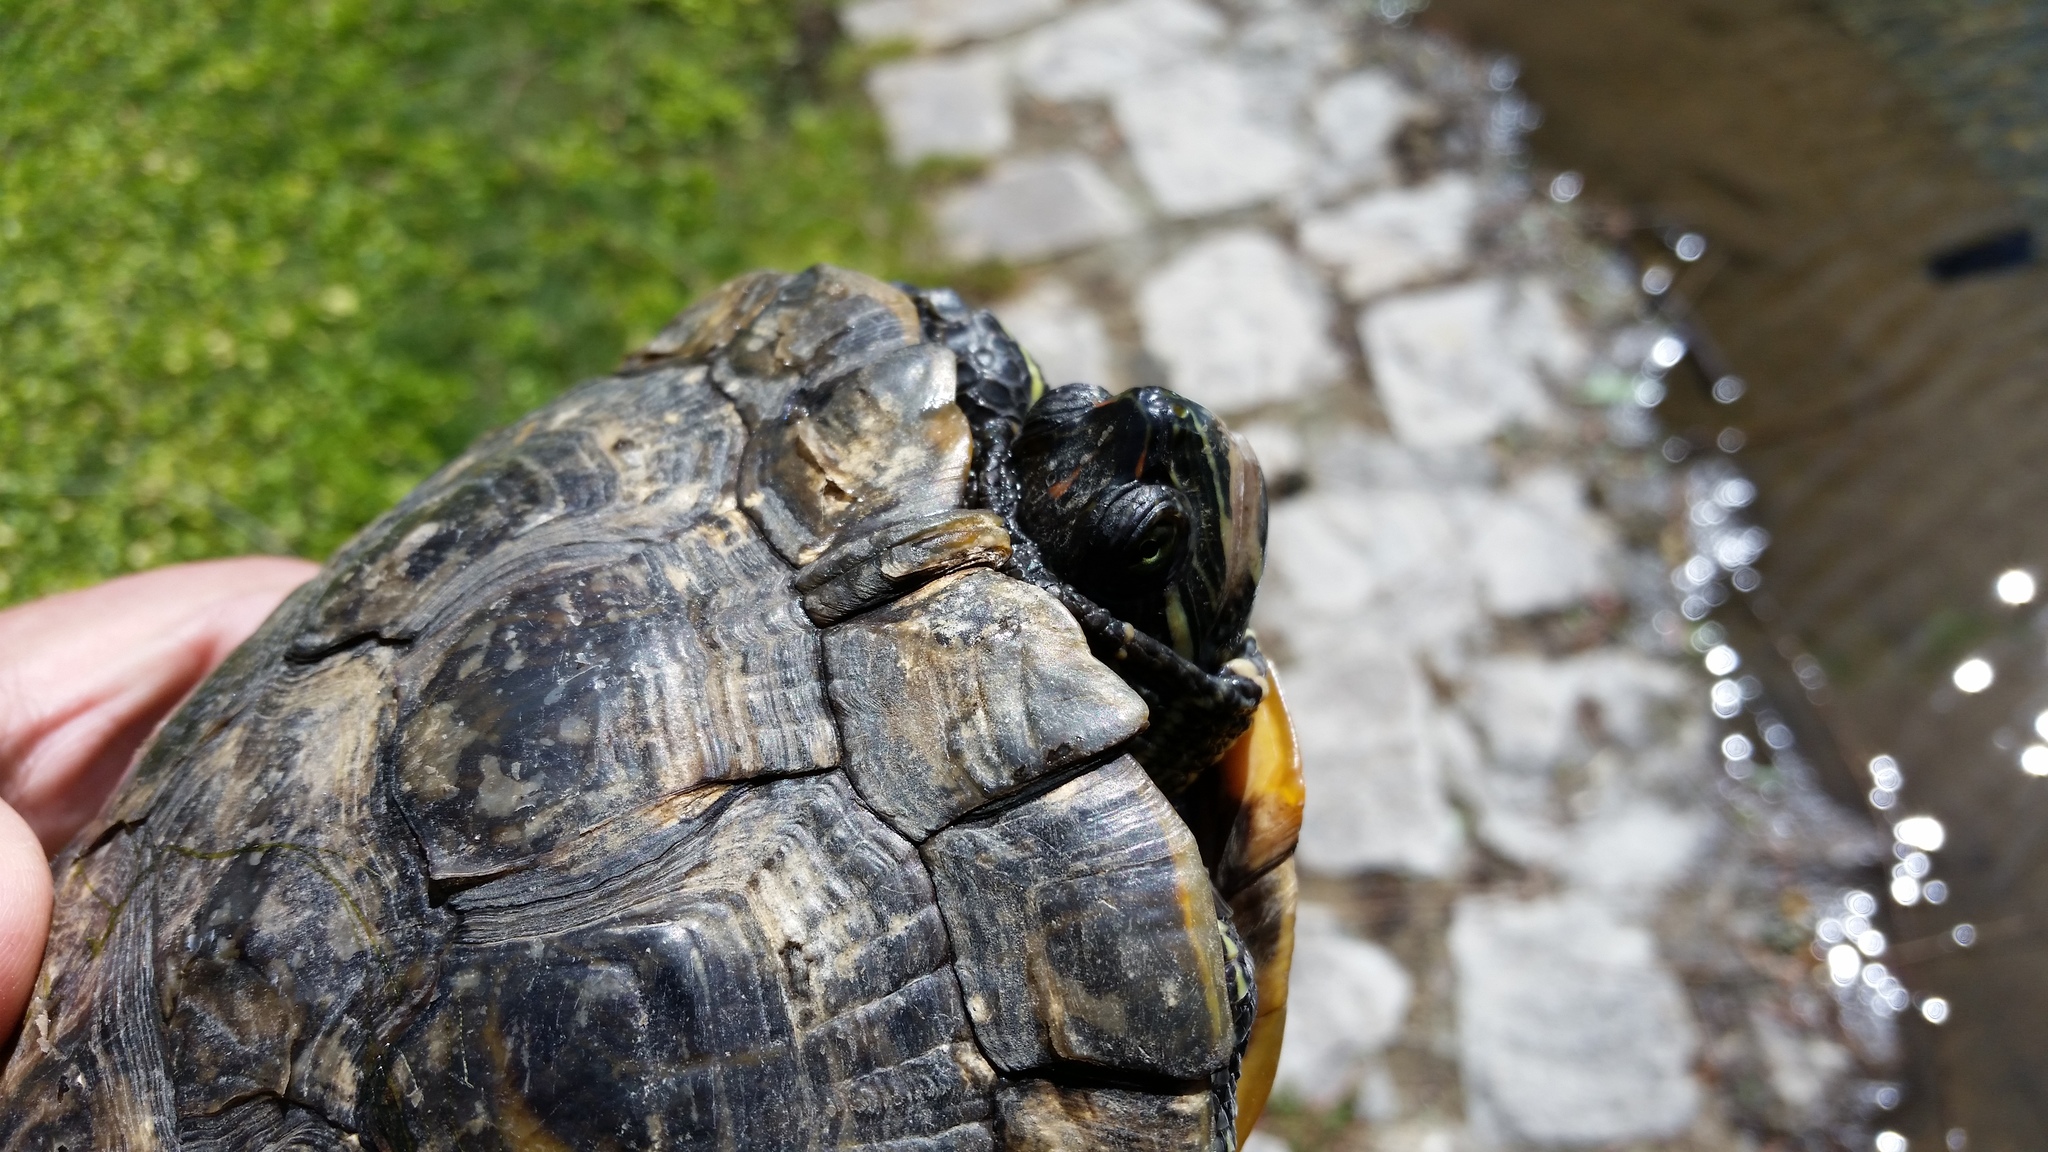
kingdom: Animalia
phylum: Chordata
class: Testudines
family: Emydidae
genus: Trachemys
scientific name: Trachemys scripta
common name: Slider
